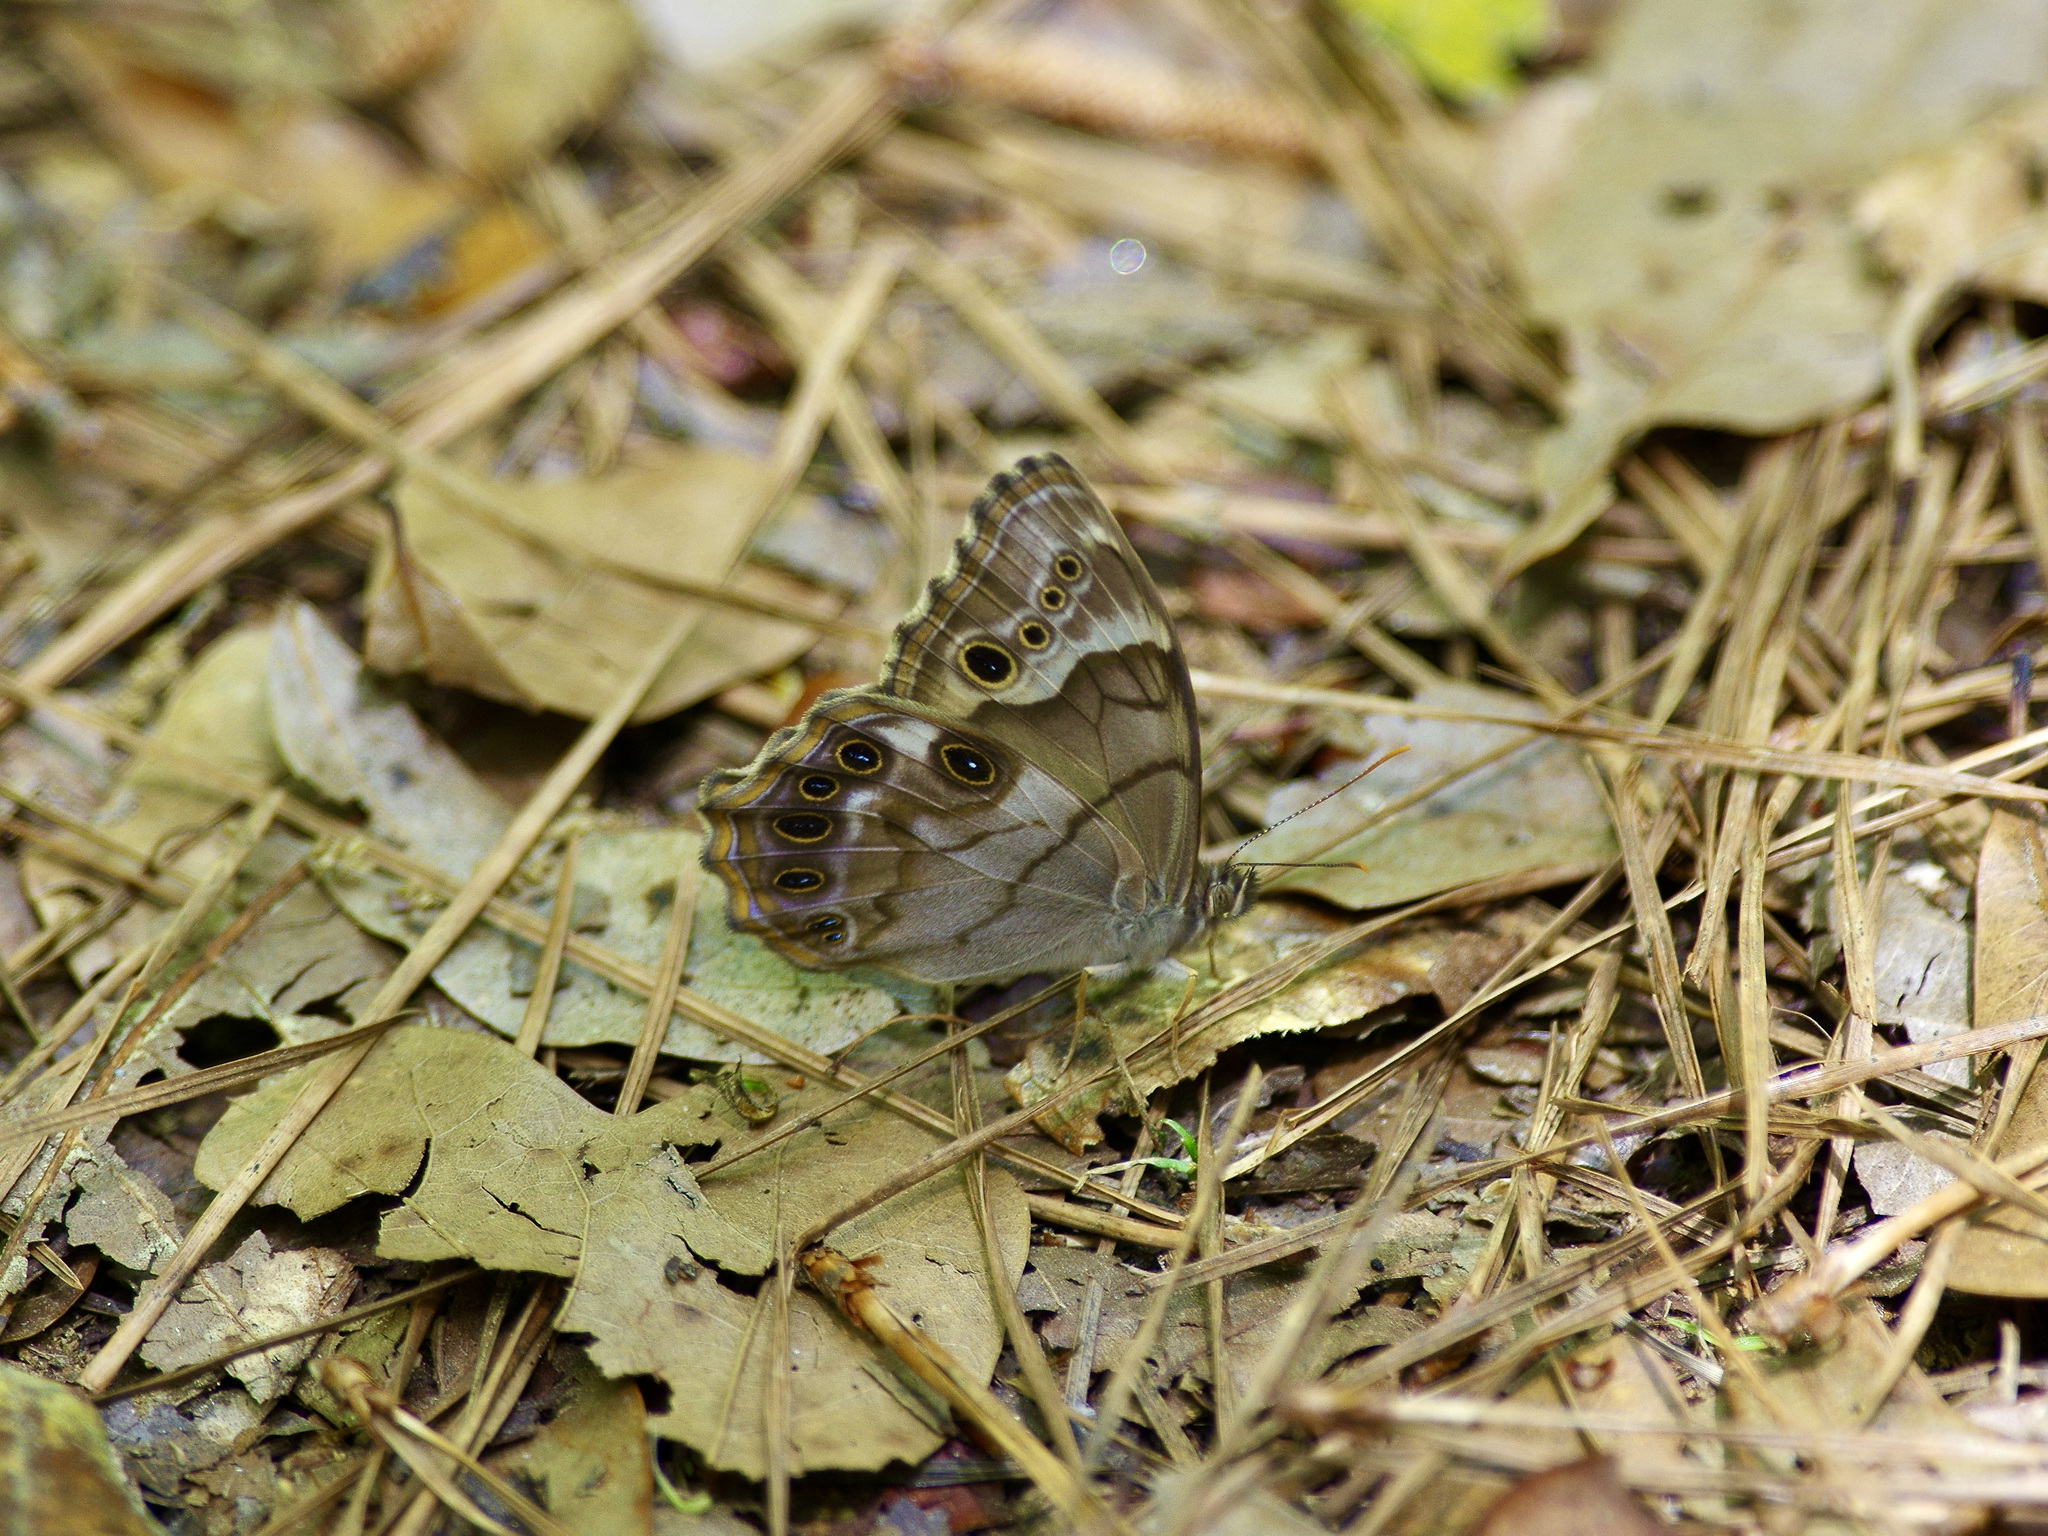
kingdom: Animalia
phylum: Arthropoda
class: Insecta
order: Lepidoptera
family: Nymphalidae
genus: Enodia
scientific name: Enodia portlandia
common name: Southern pearly-eye
